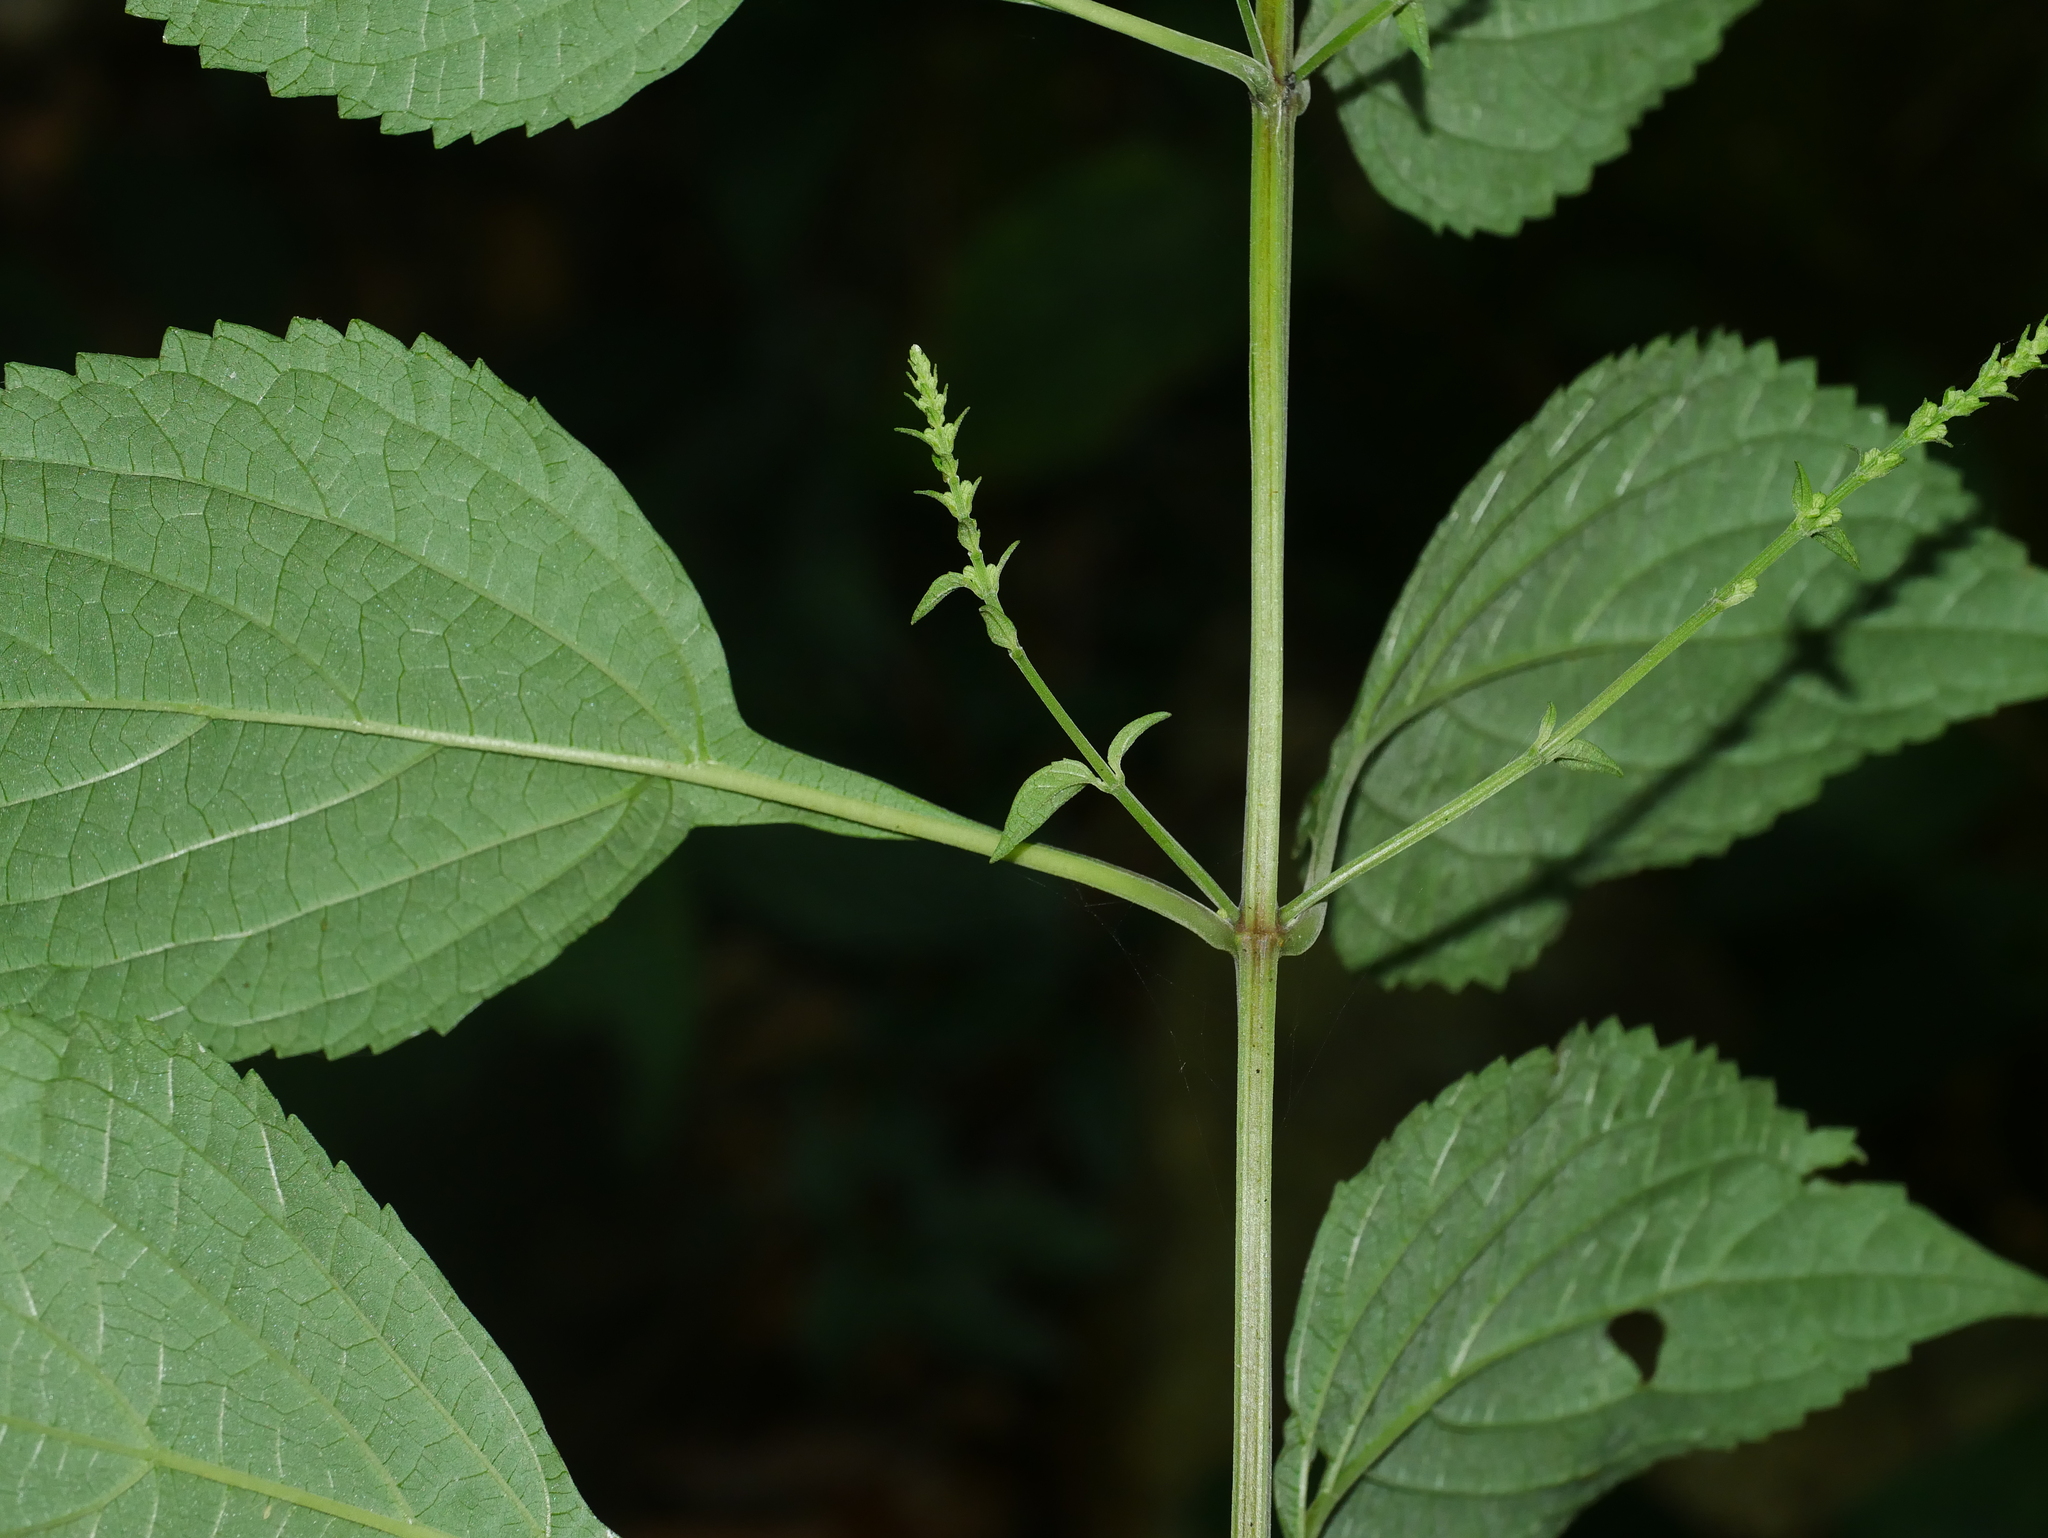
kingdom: Plantae
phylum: Tracheophyta
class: Magnoliopsida
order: Lamiales
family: Lamiaceae
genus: Isodon
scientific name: Isodon macrocalyx
